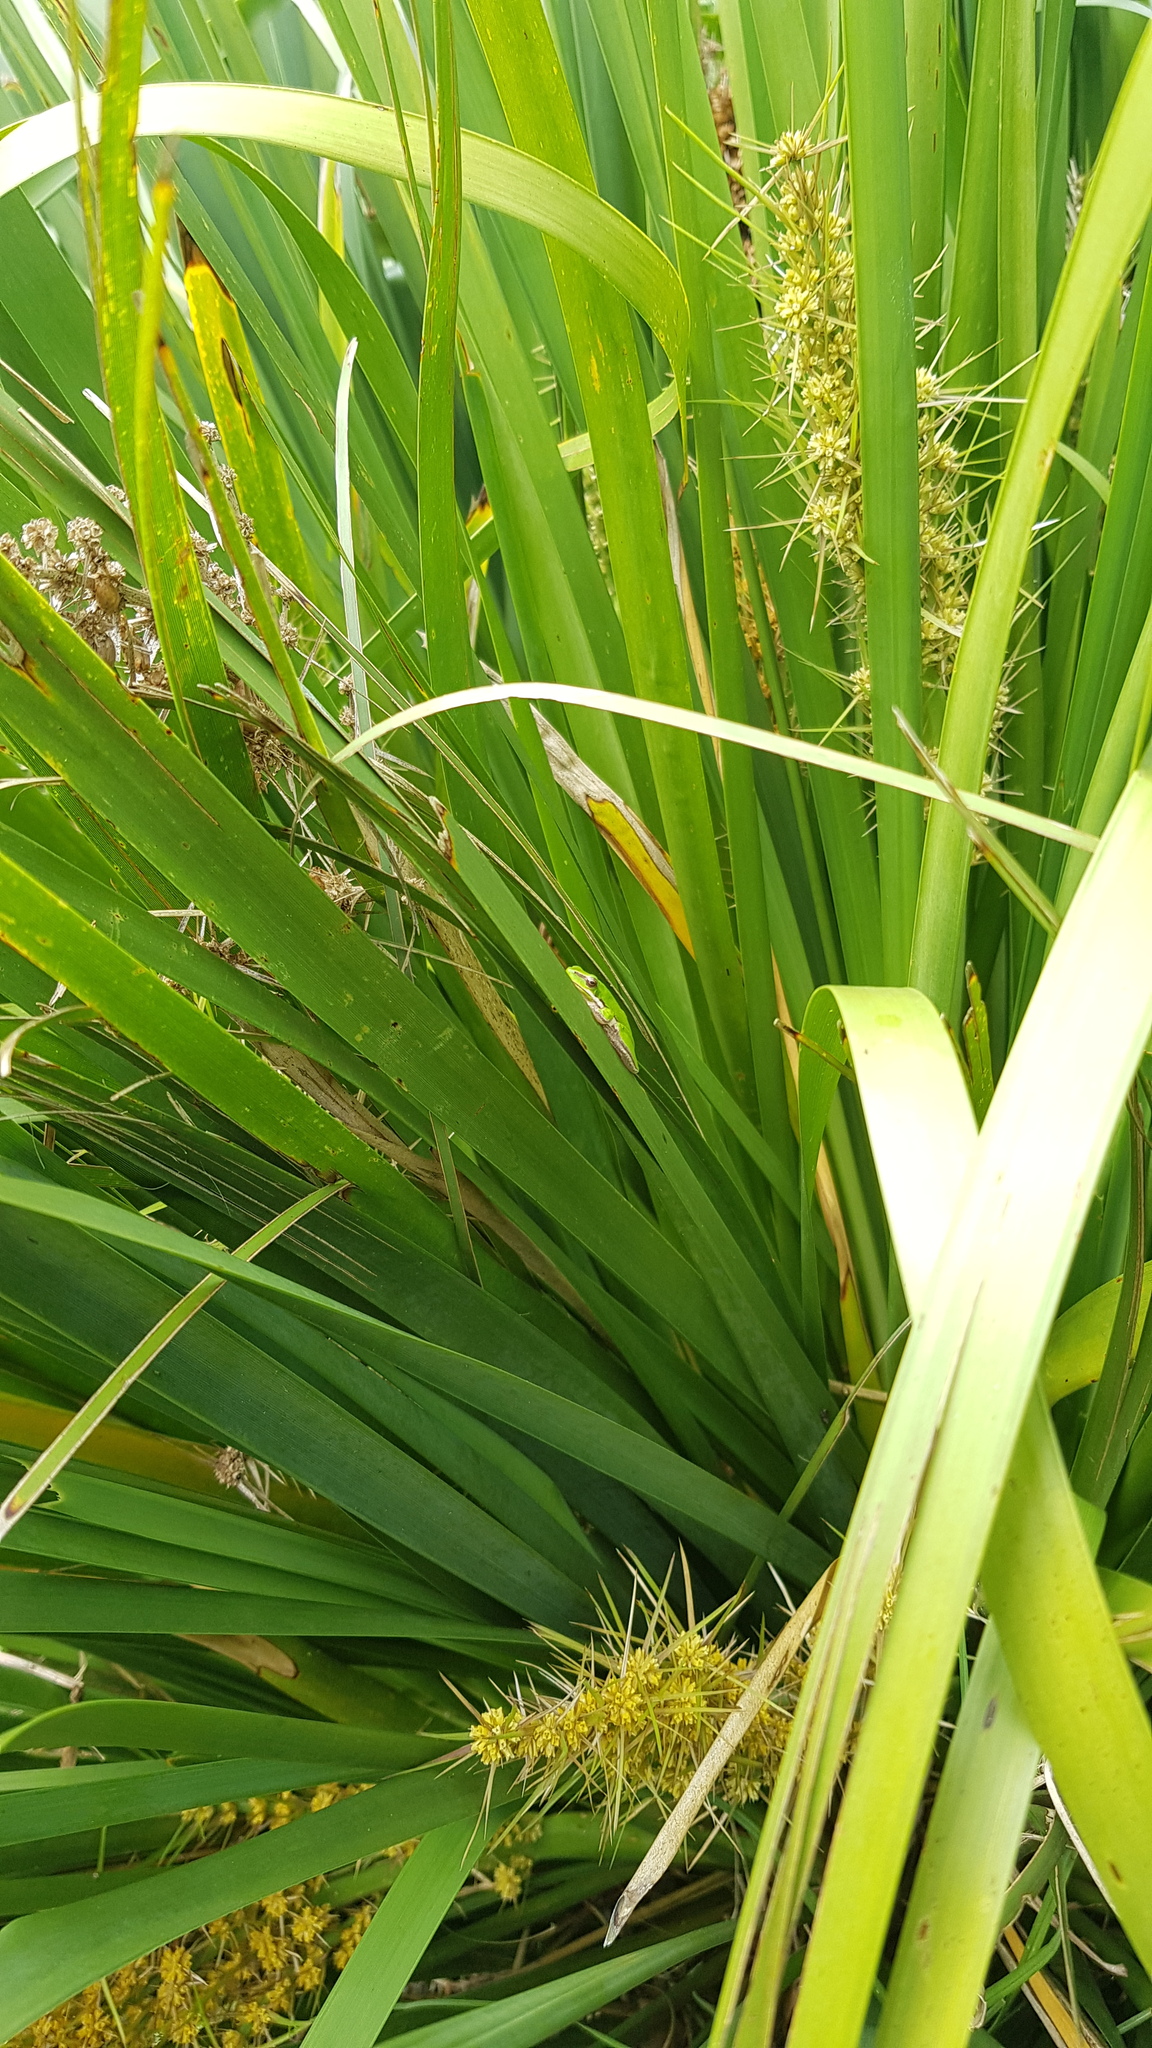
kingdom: Animalia
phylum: Chordata
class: Amphibia
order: Anura
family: Pelodryadidae
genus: Litoria
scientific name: Litoria fallax
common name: Eastern dwarf treefrog
